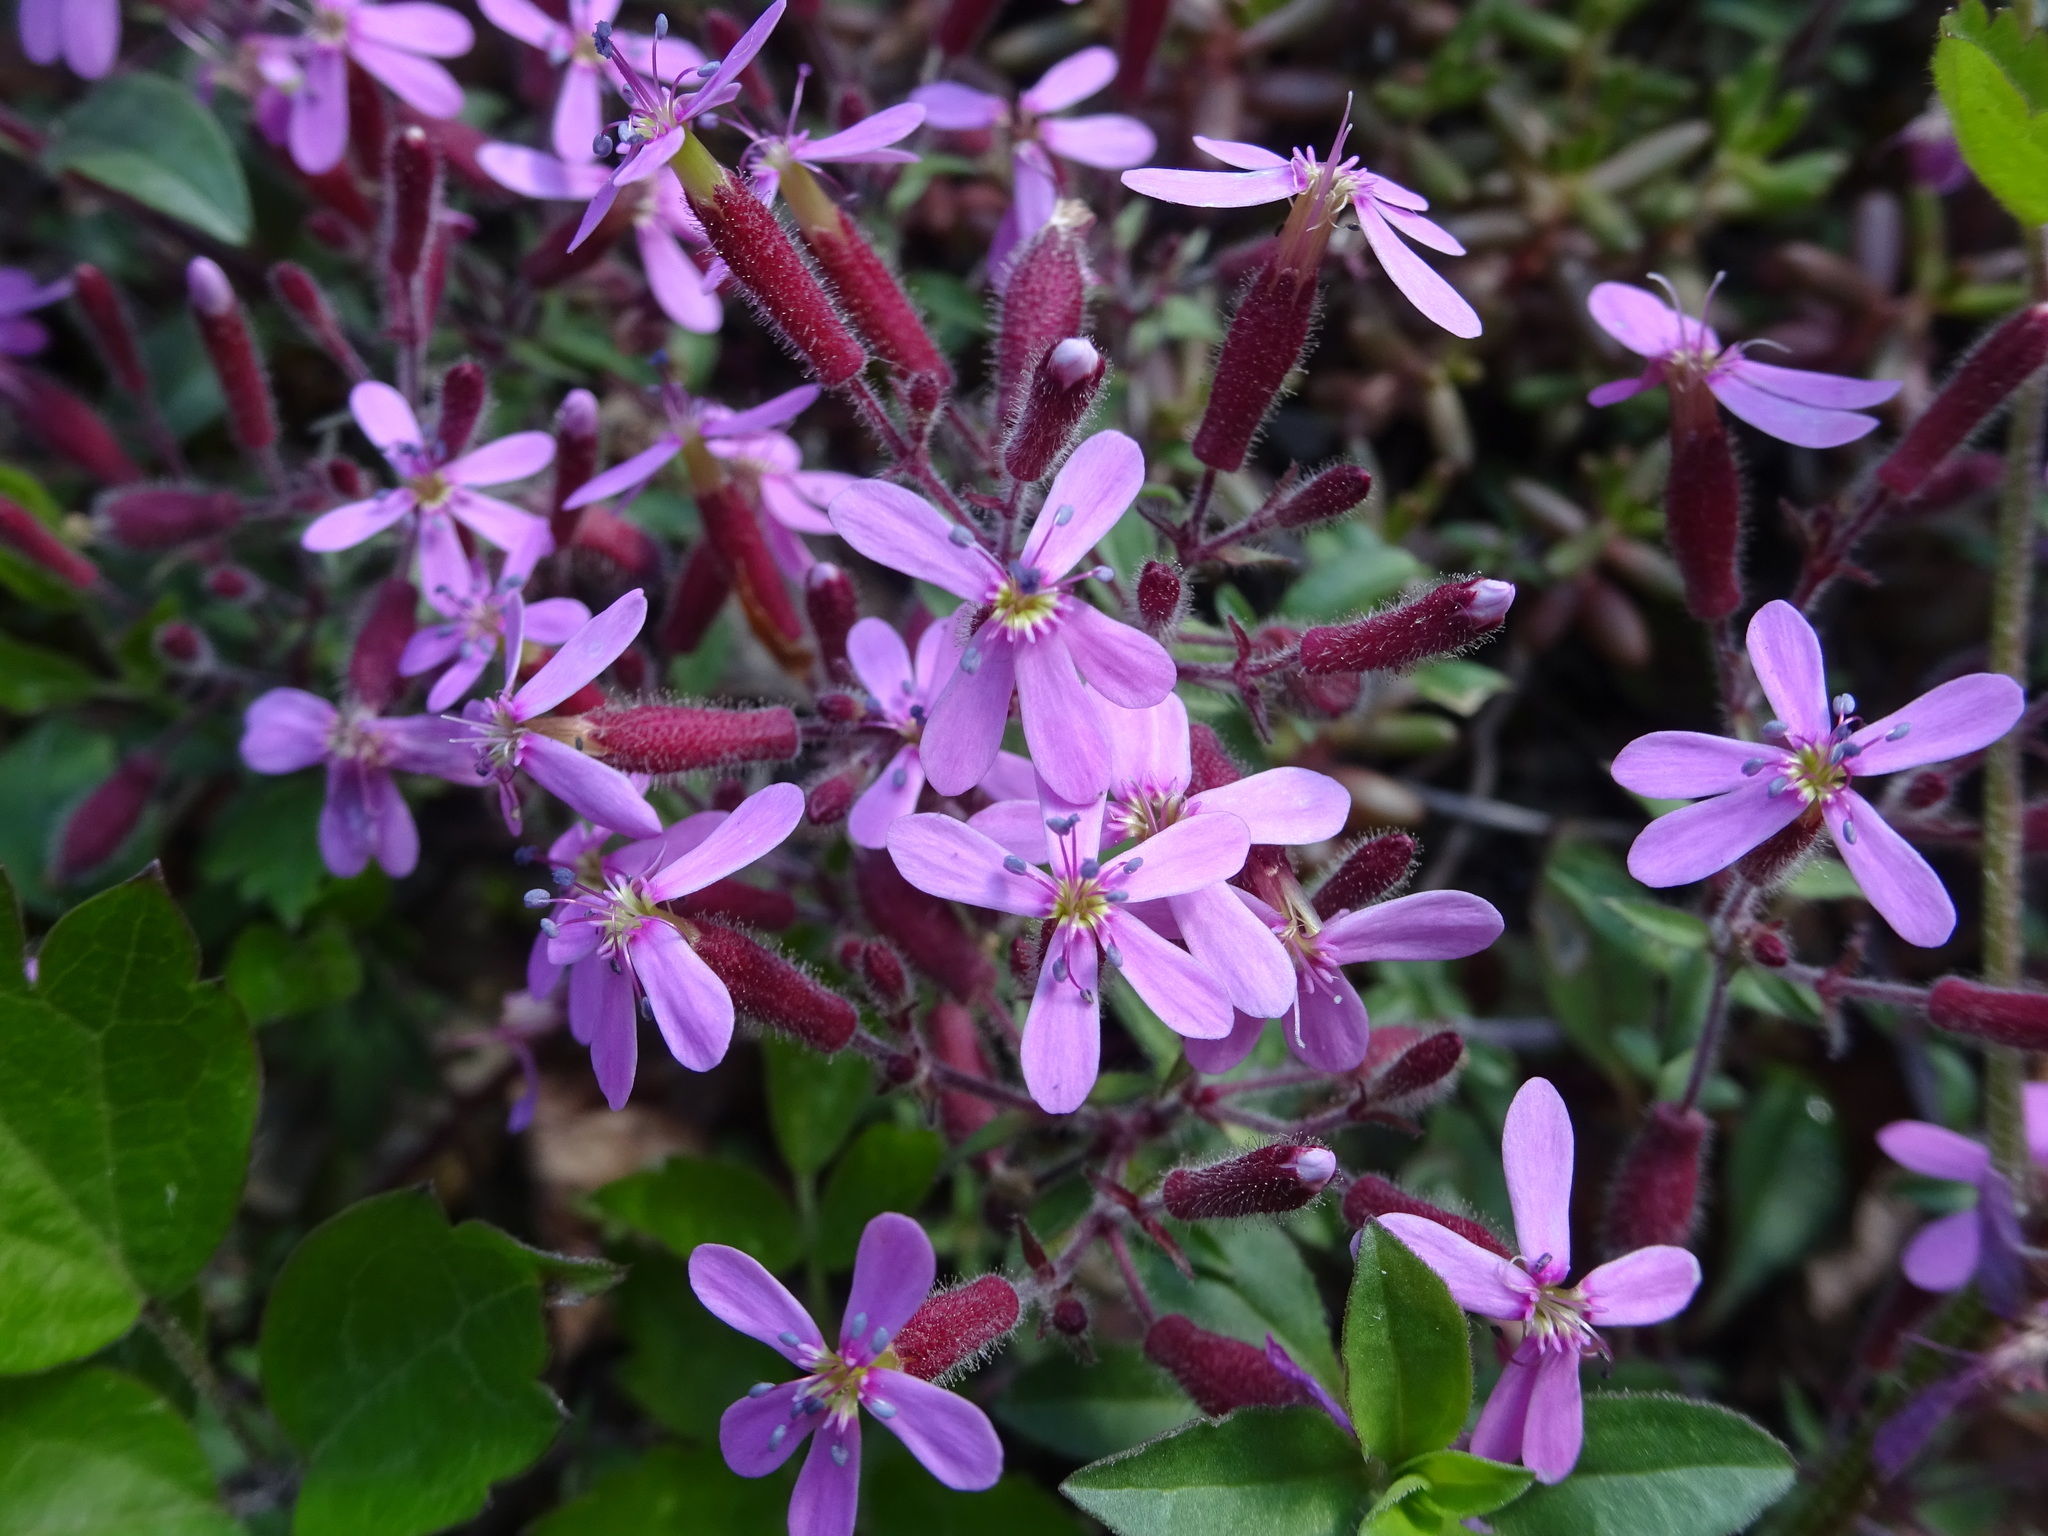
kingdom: Plantae
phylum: Tracheophyta
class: Magnoliopsida
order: Caryophyllales
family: Caryophyllaceae
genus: Saponaria
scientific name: Saponaria ocymoides
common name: Rock soapwort
